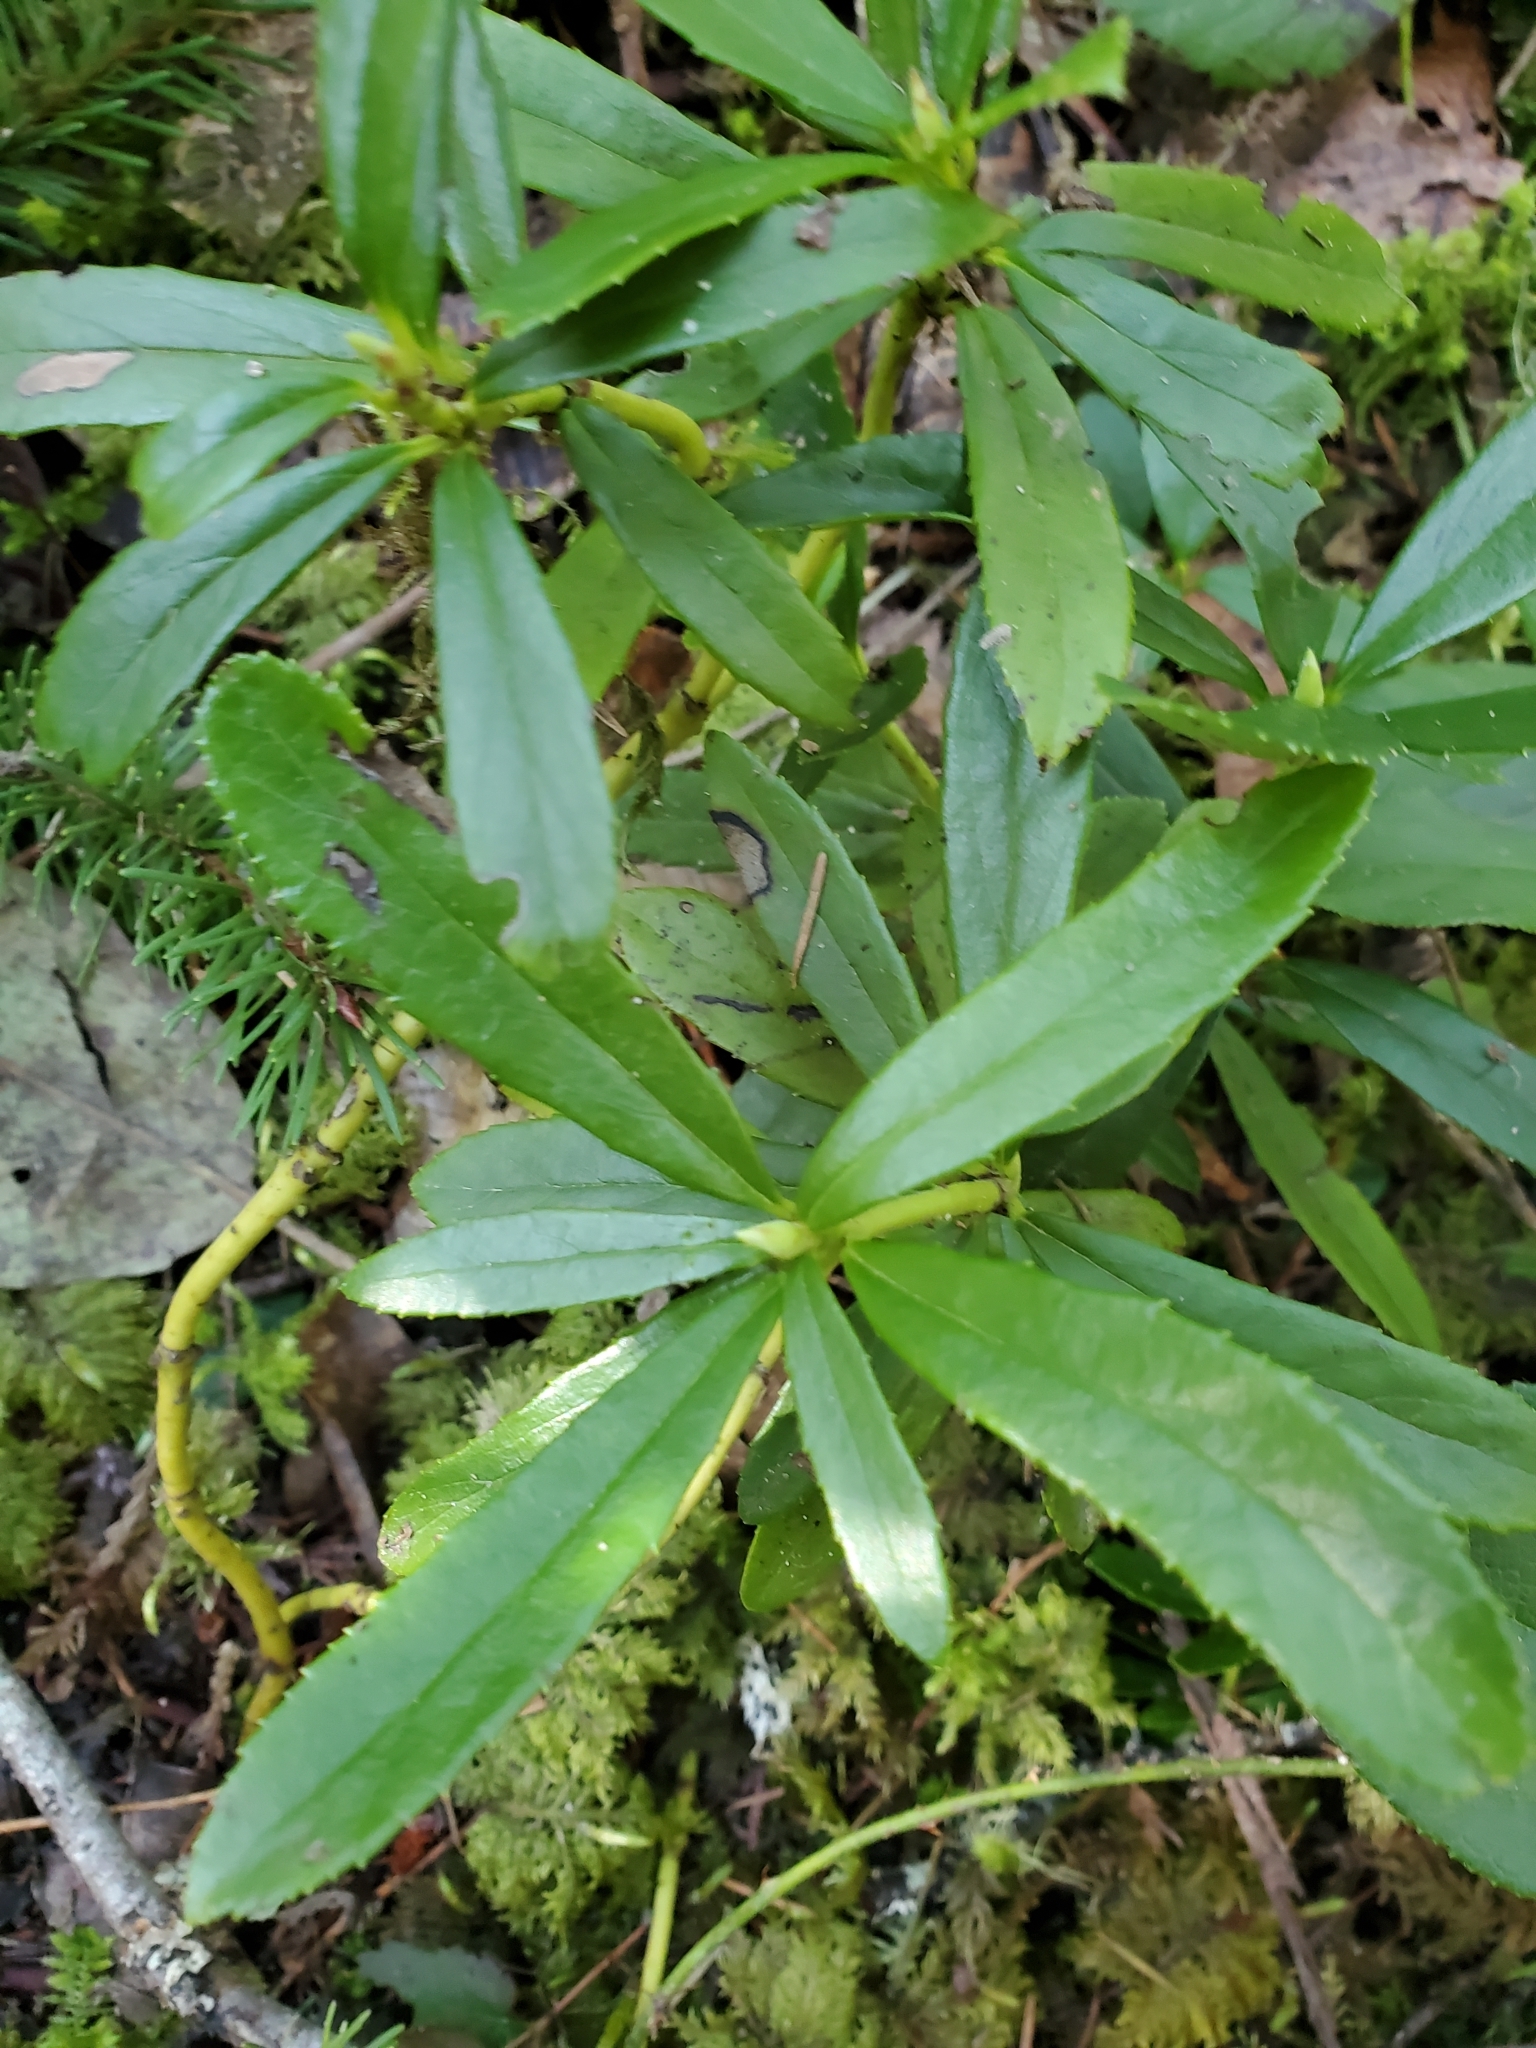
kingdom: Plantae
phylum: Tracheophyta
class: Magnoliopsida
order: Ericales
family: Ericaceae
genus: Chimaphila
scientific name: Chimaphila umbellata
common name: Pipsissewa
